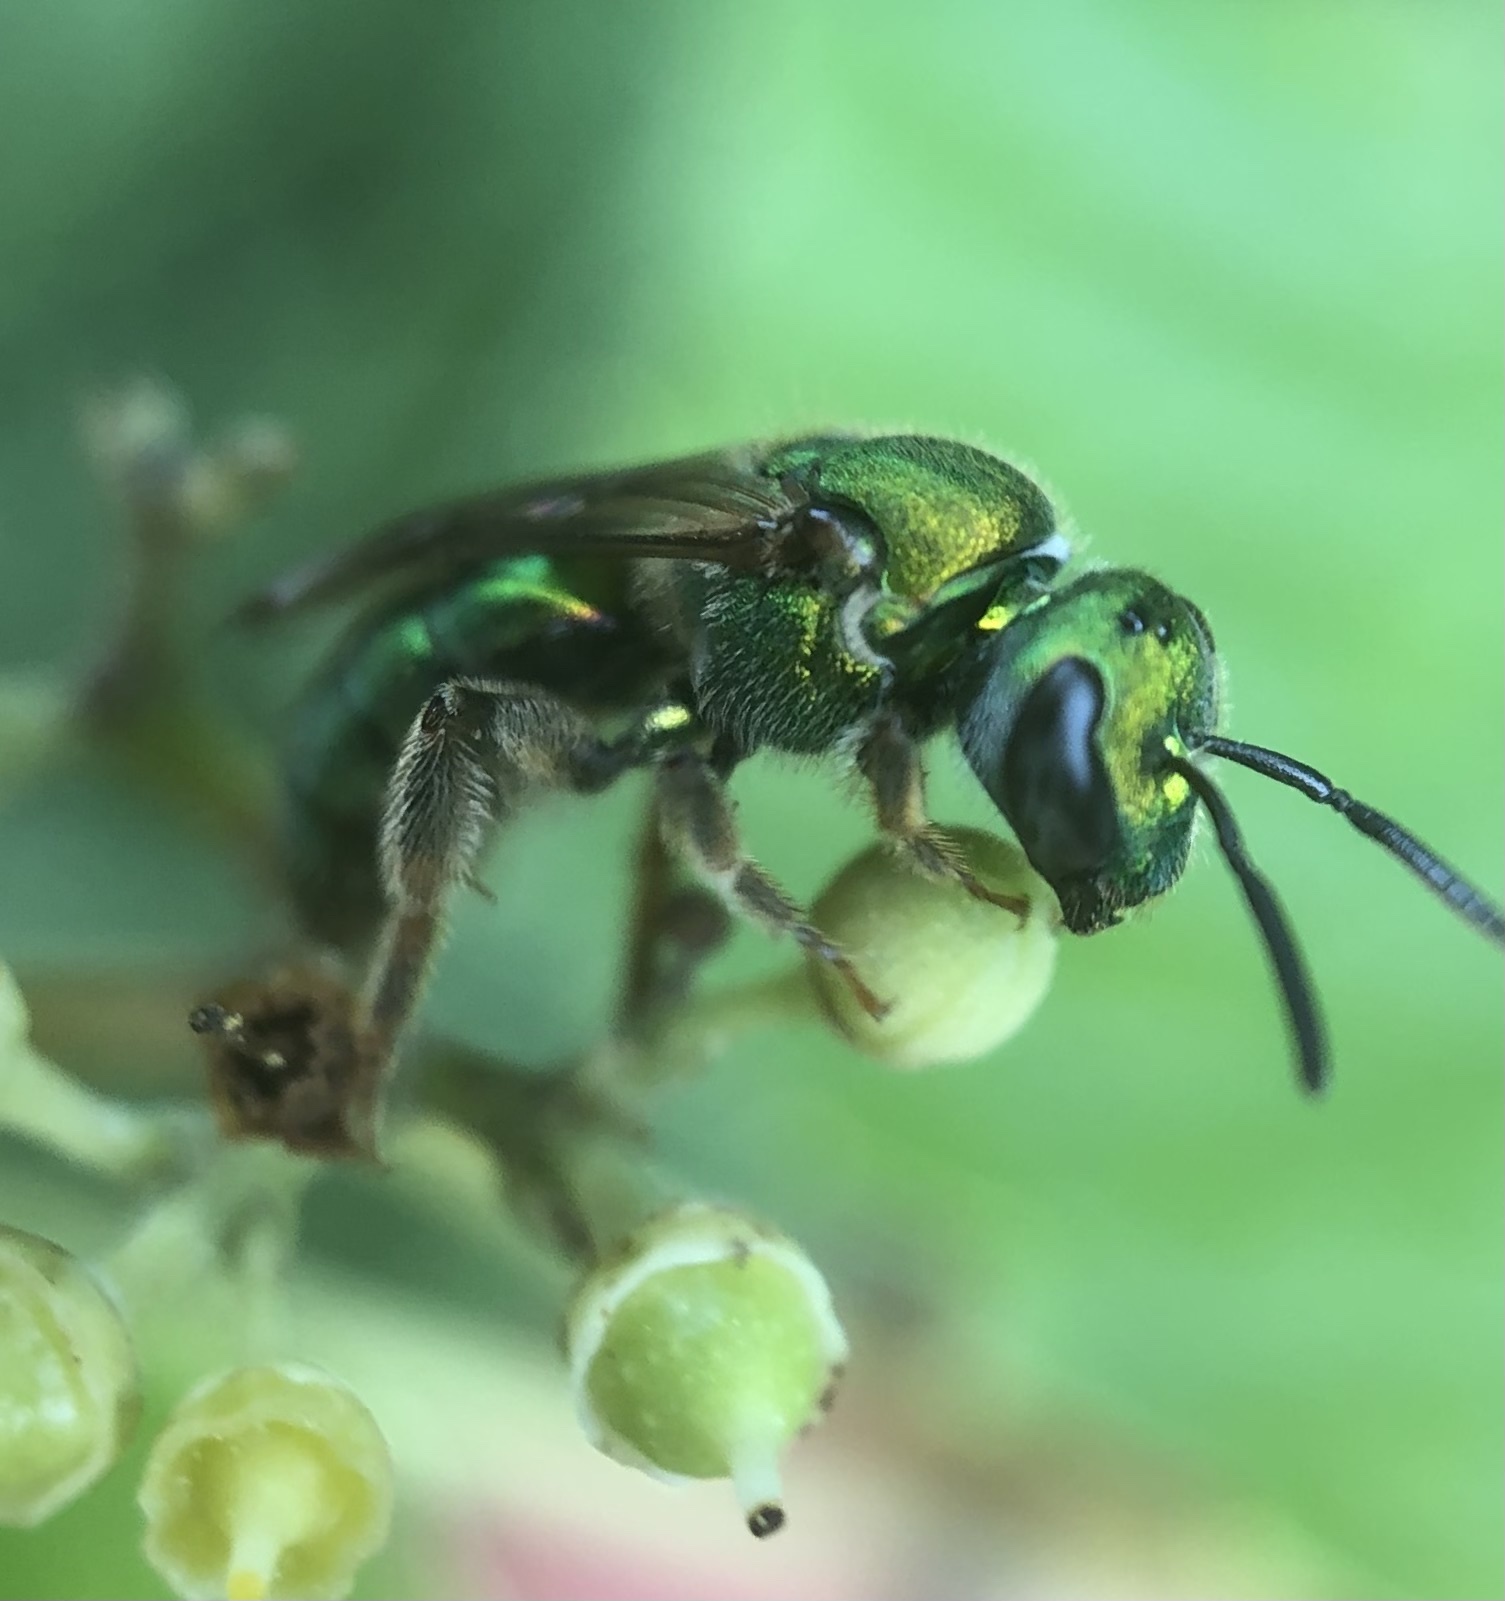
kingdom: Animalia
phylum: Arthropoda
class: Insecta
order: Hymenoptera
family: Halictidae
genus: Augochlora
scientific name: Augochlora pura
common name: Pure green sweat bee
